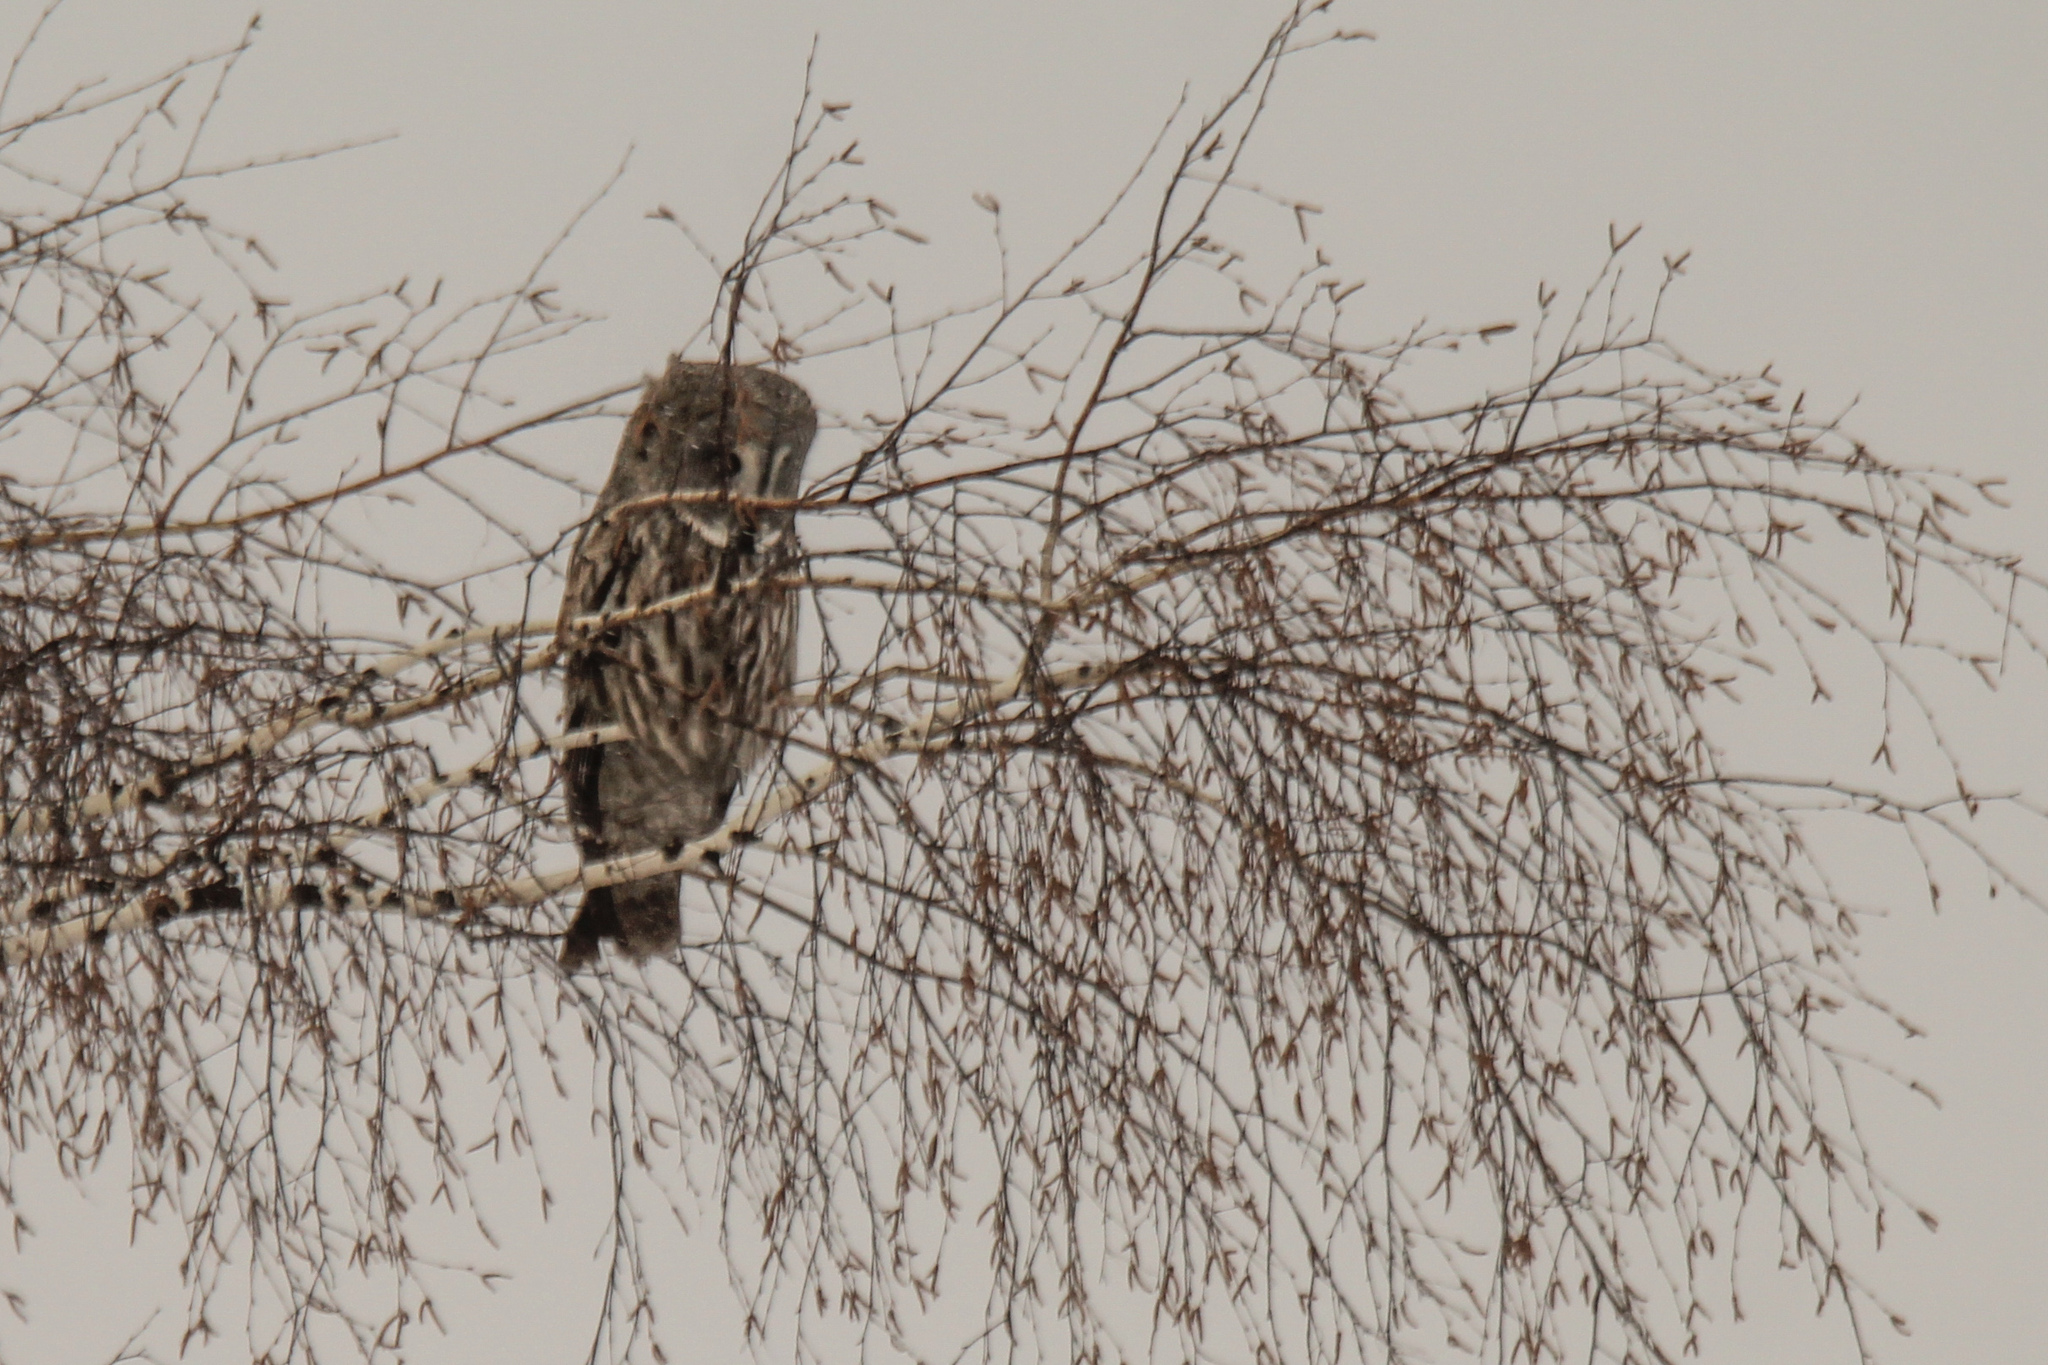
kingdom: Animalia
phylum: Chordata
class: Aves
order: Strigiformes
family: Strigidae
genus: Strix
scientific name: Strix nebulosa
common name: Great grey owl
